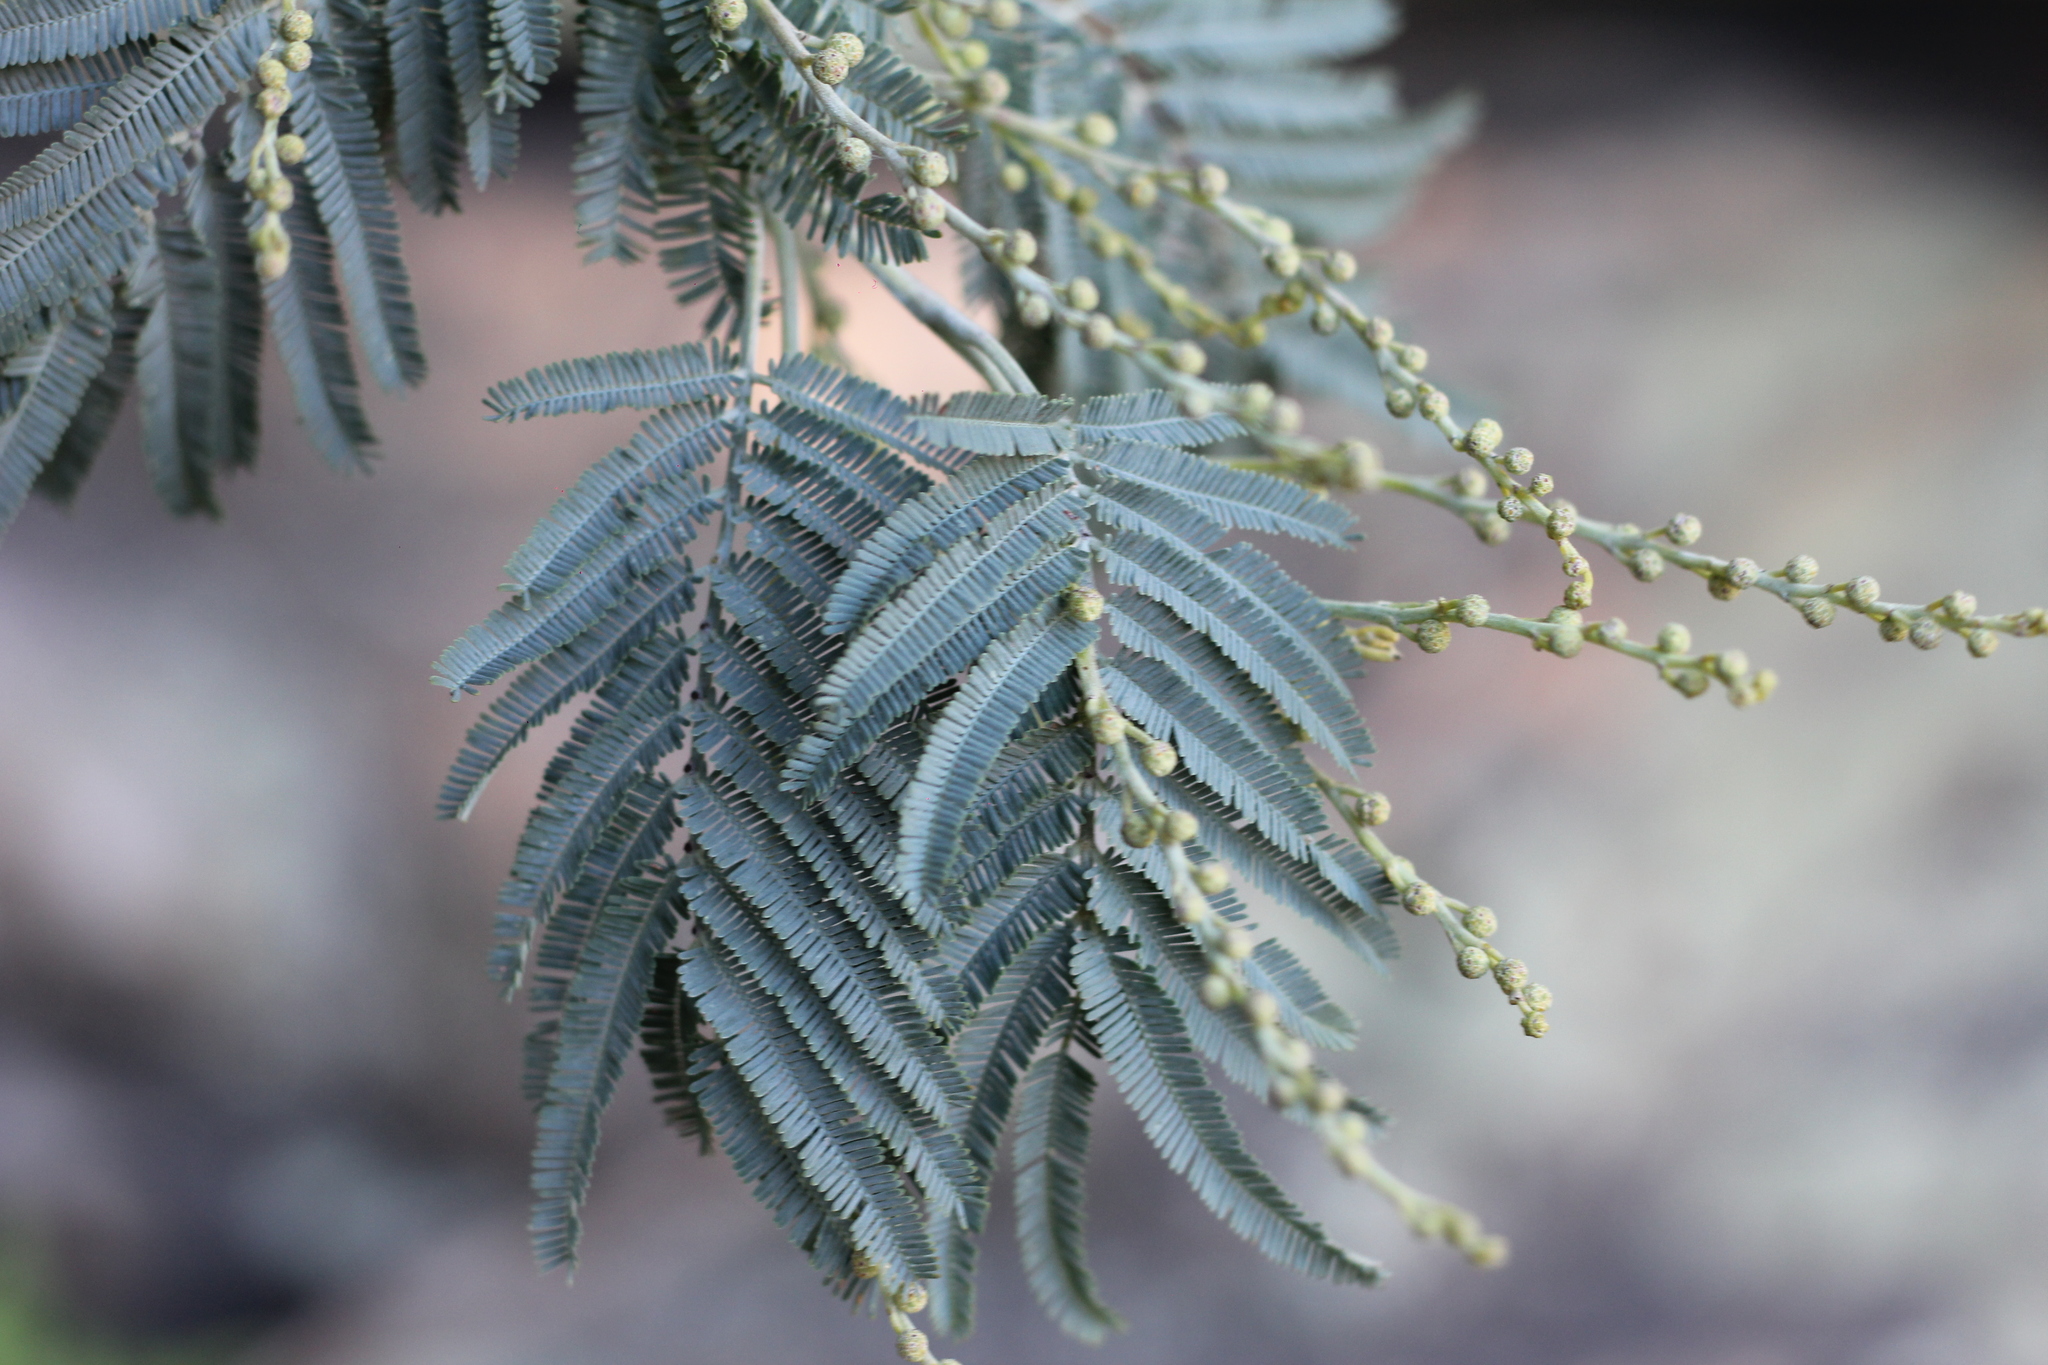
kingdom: Plantae
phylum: Tracheophyta
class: Magnoliopsida
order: Fabales
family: Fabaceae
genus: Acacia
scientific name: Acacia dealbata
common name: Silver wattle
